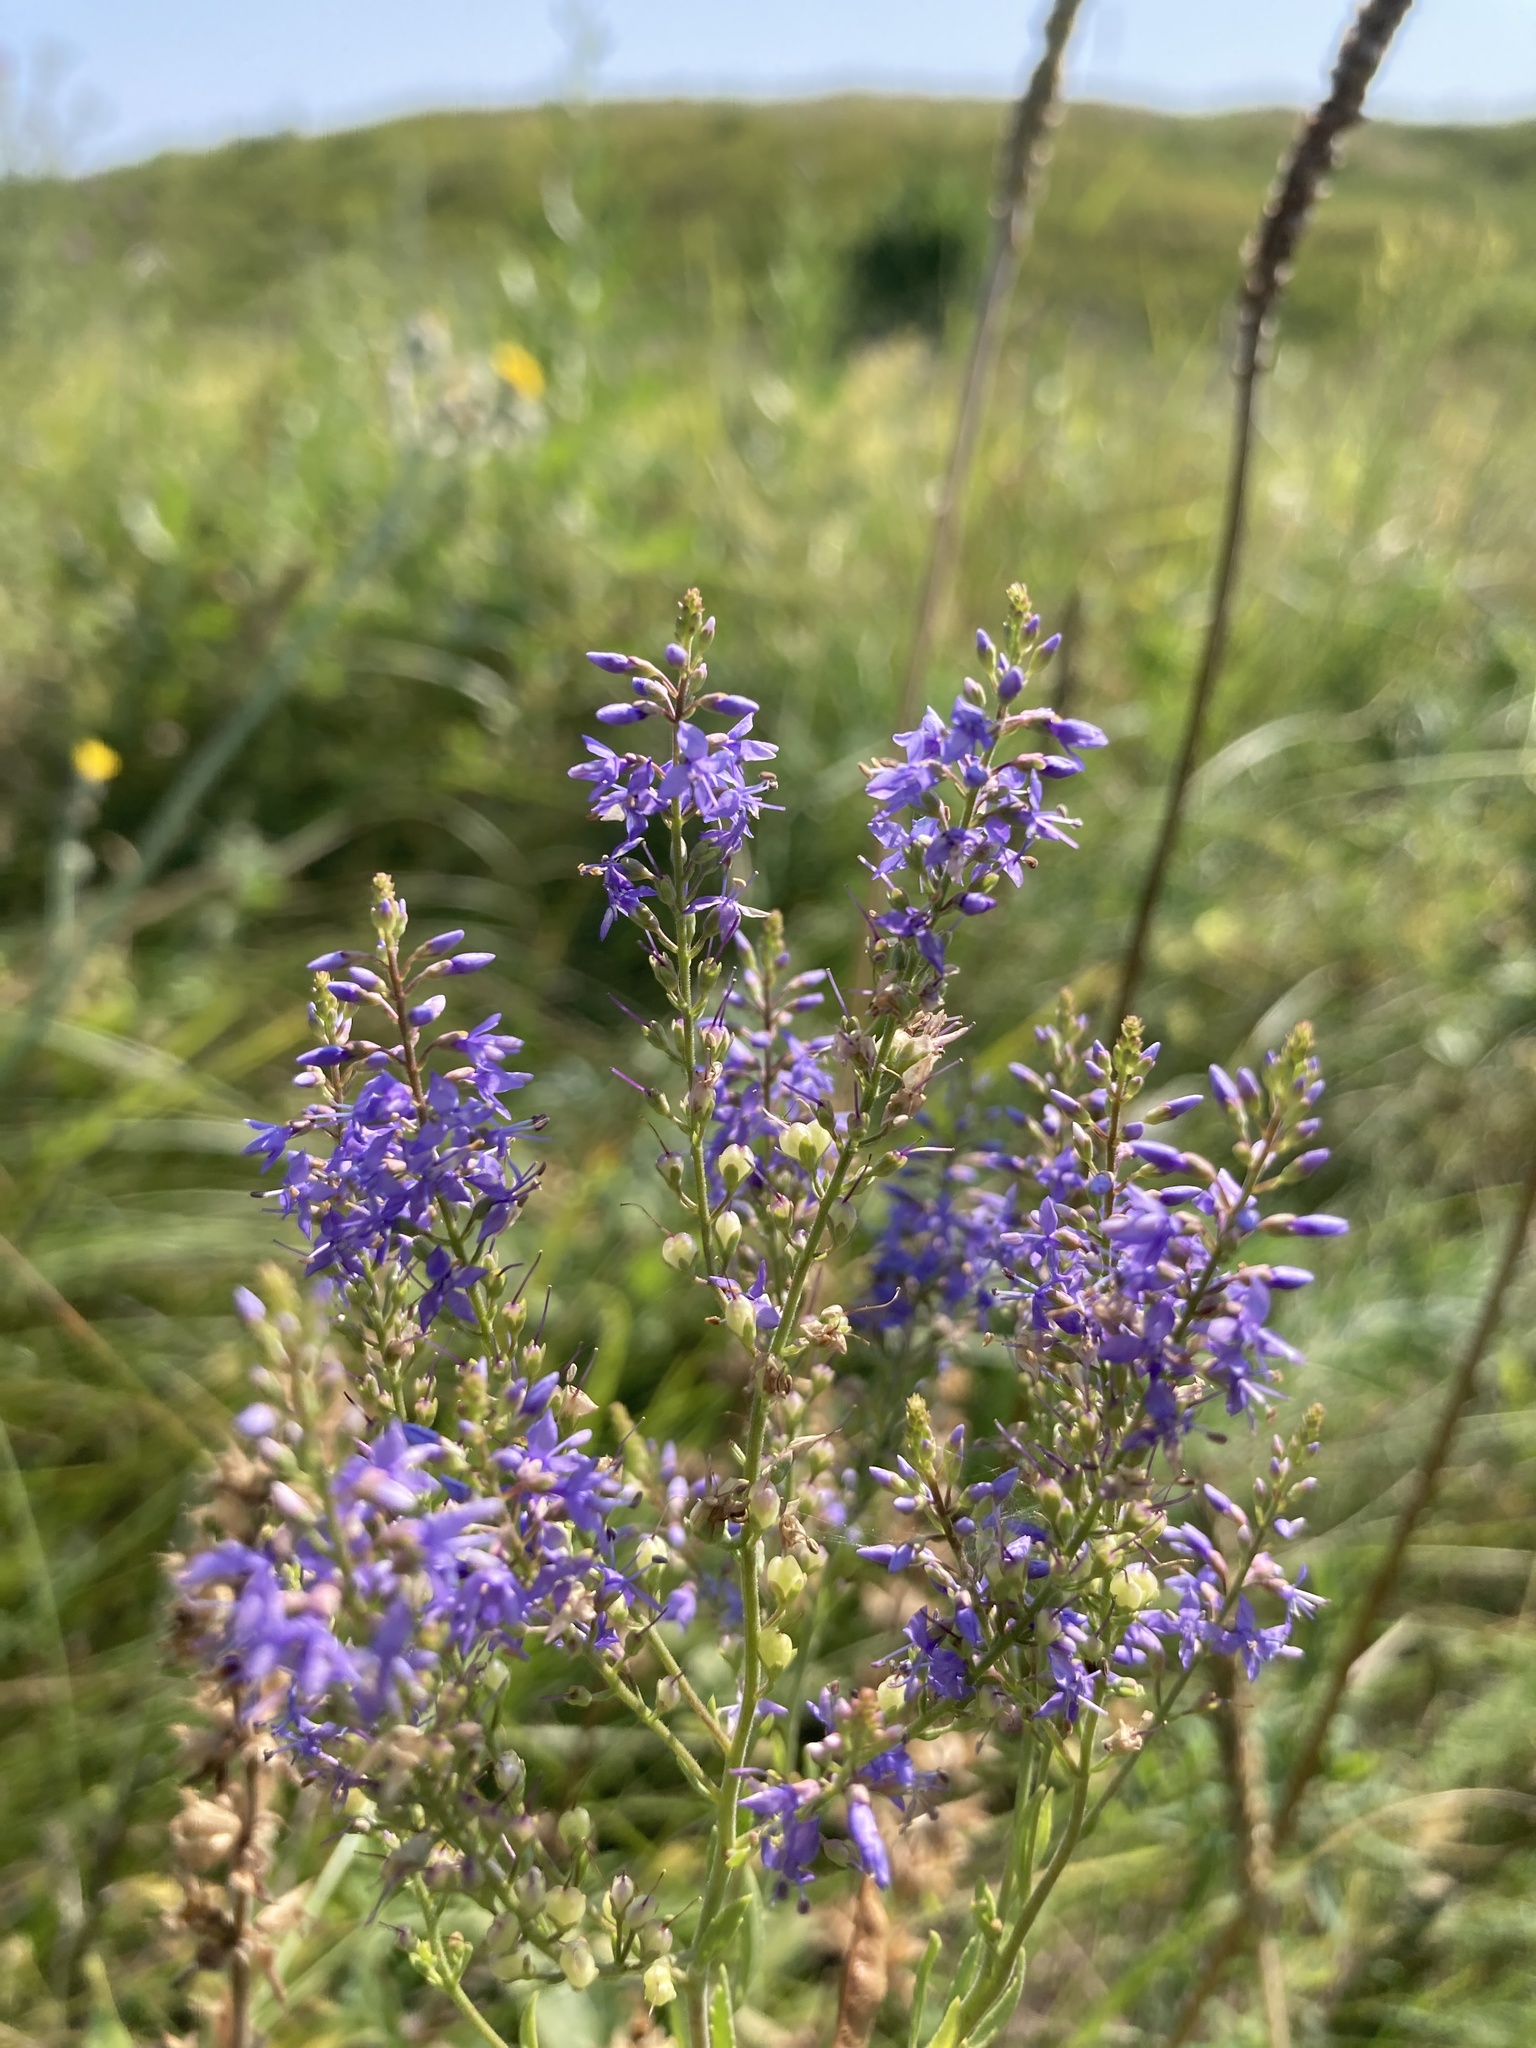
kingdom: Plantae
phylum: Tracheophyta
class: Magnoliopsida
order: Lamiales
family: Plantaginaceae
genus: Veronica
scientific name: Veronica spuria
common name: Bastard speedwell
